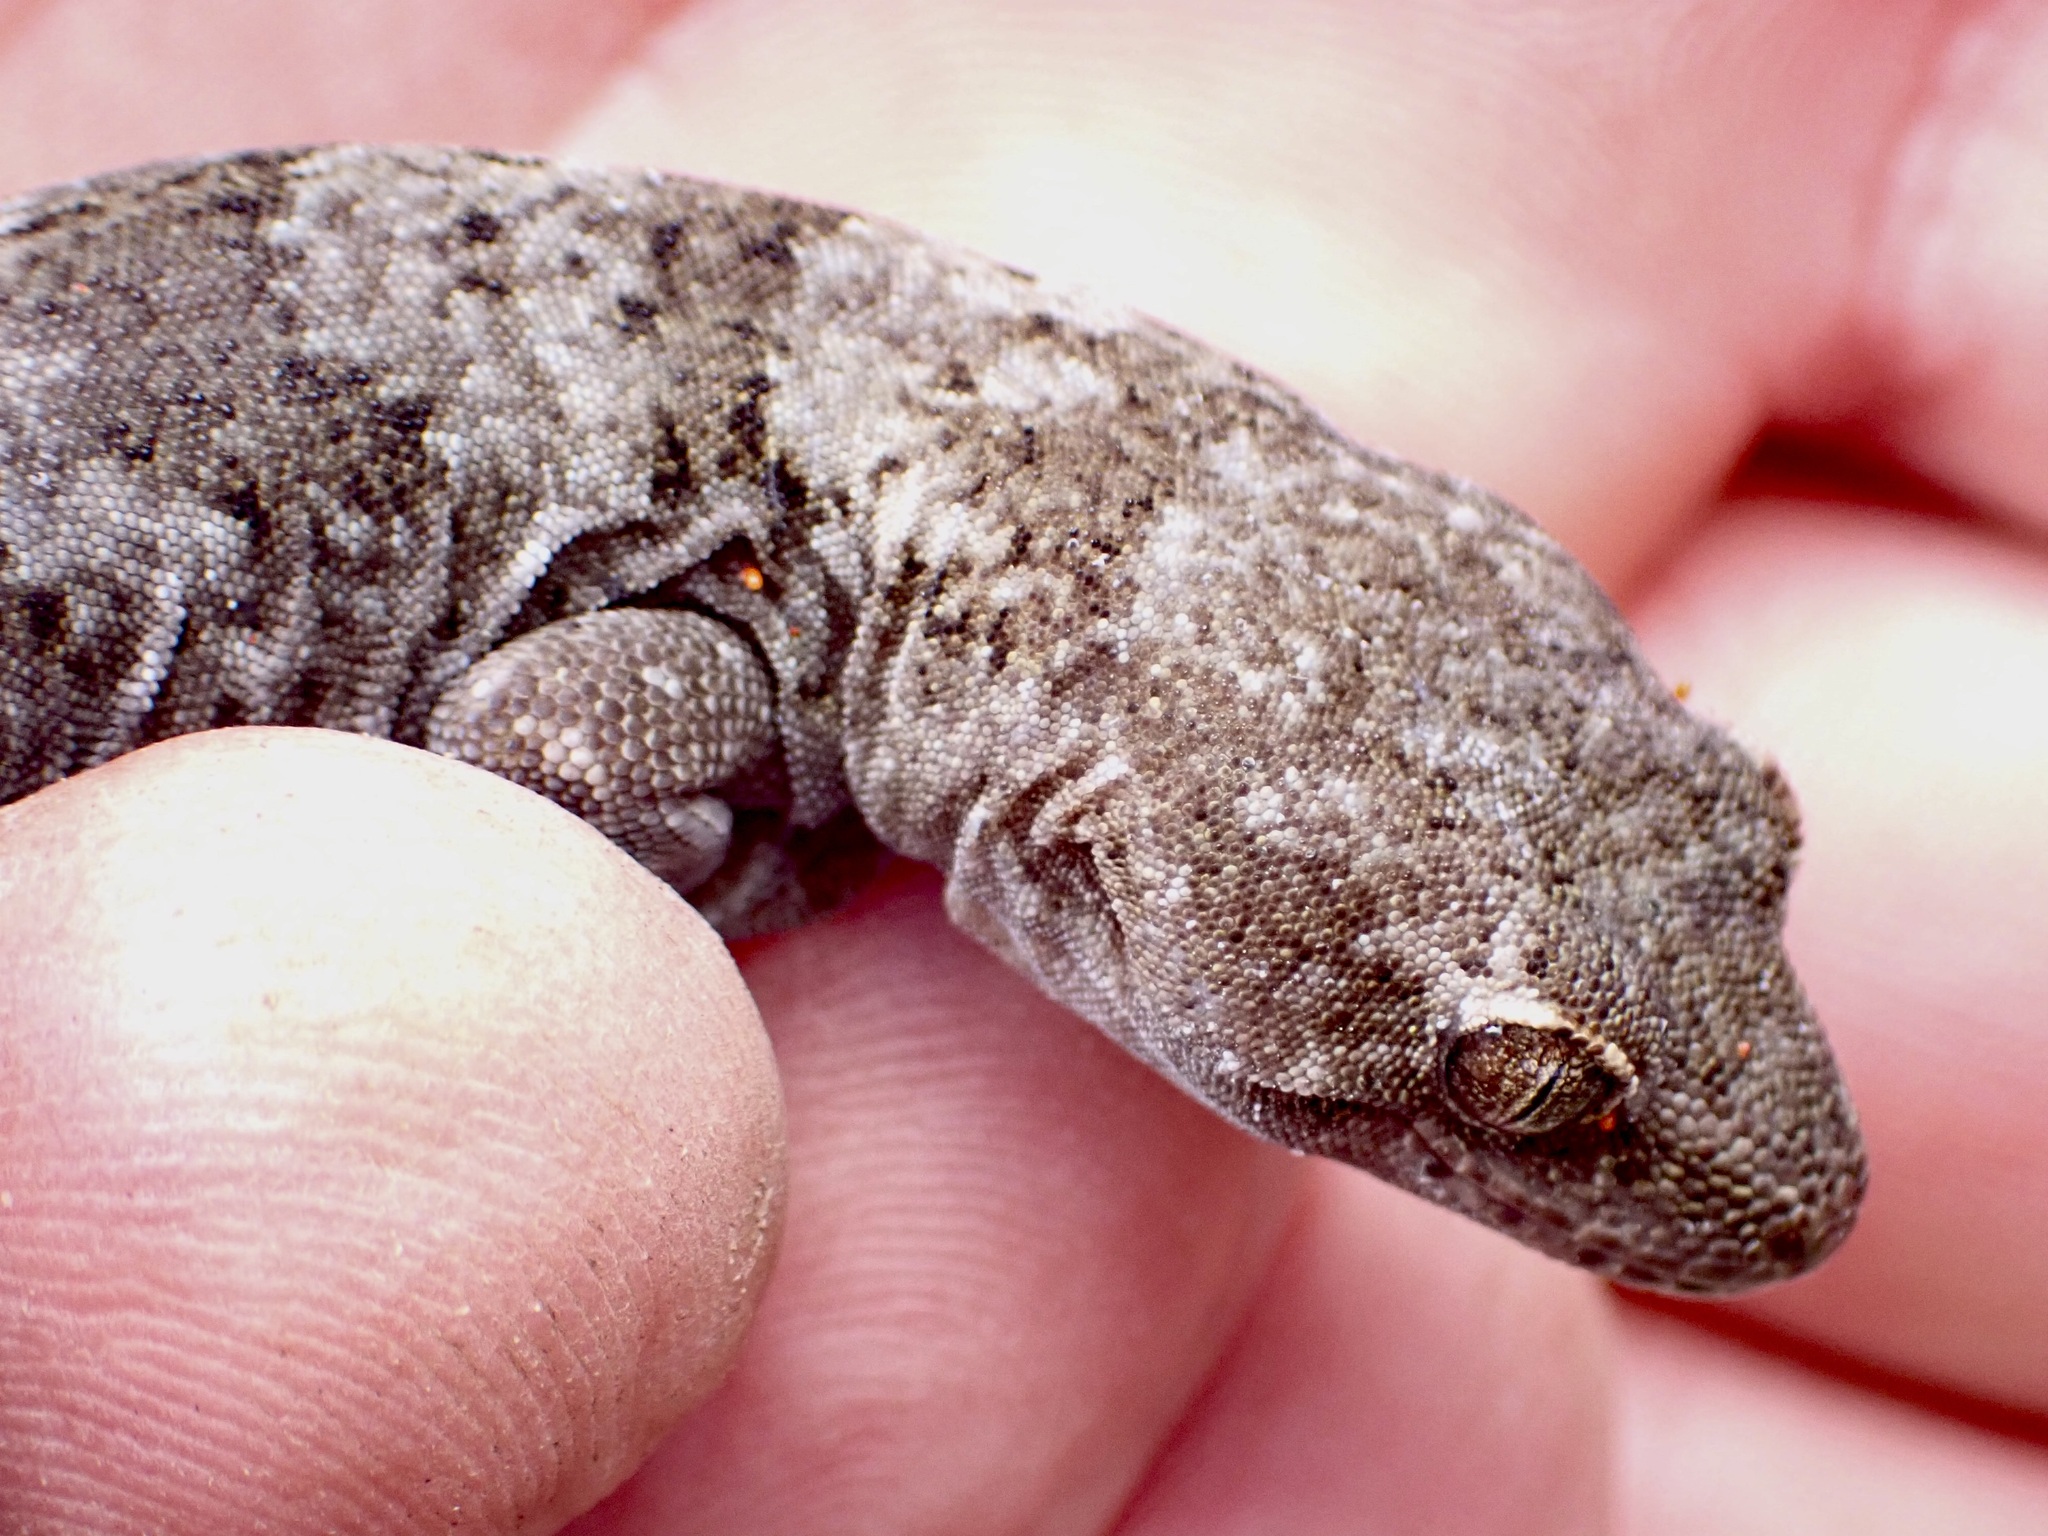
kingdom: Animalia
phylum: Chordata
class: Squamata
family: Diplodactylidae
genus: Woodworthia
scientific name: Woodworthia
